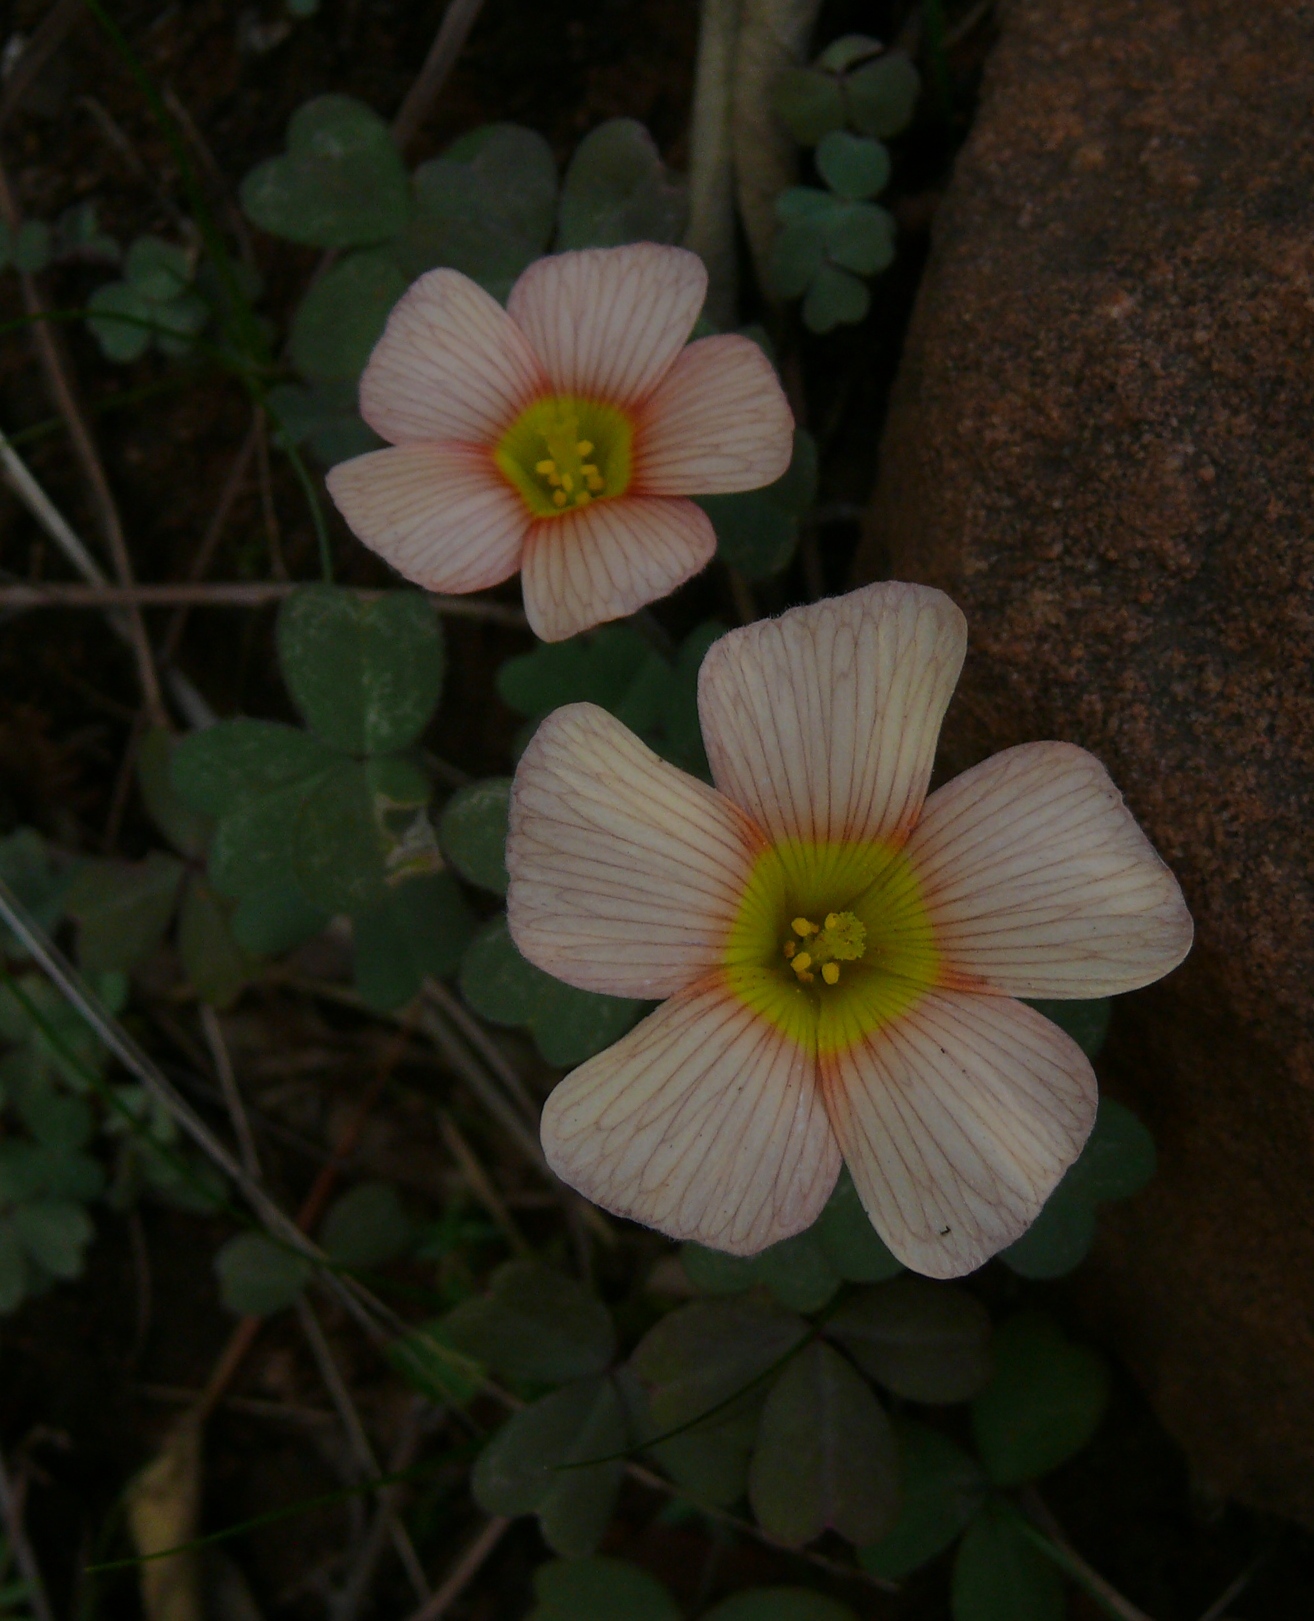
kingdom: Plantae
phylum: Tracheophyta
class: Magnoliopsida
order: Oxalidales
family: Oxalidaceae
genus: Oxalis
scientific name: Oxalis obtusa
